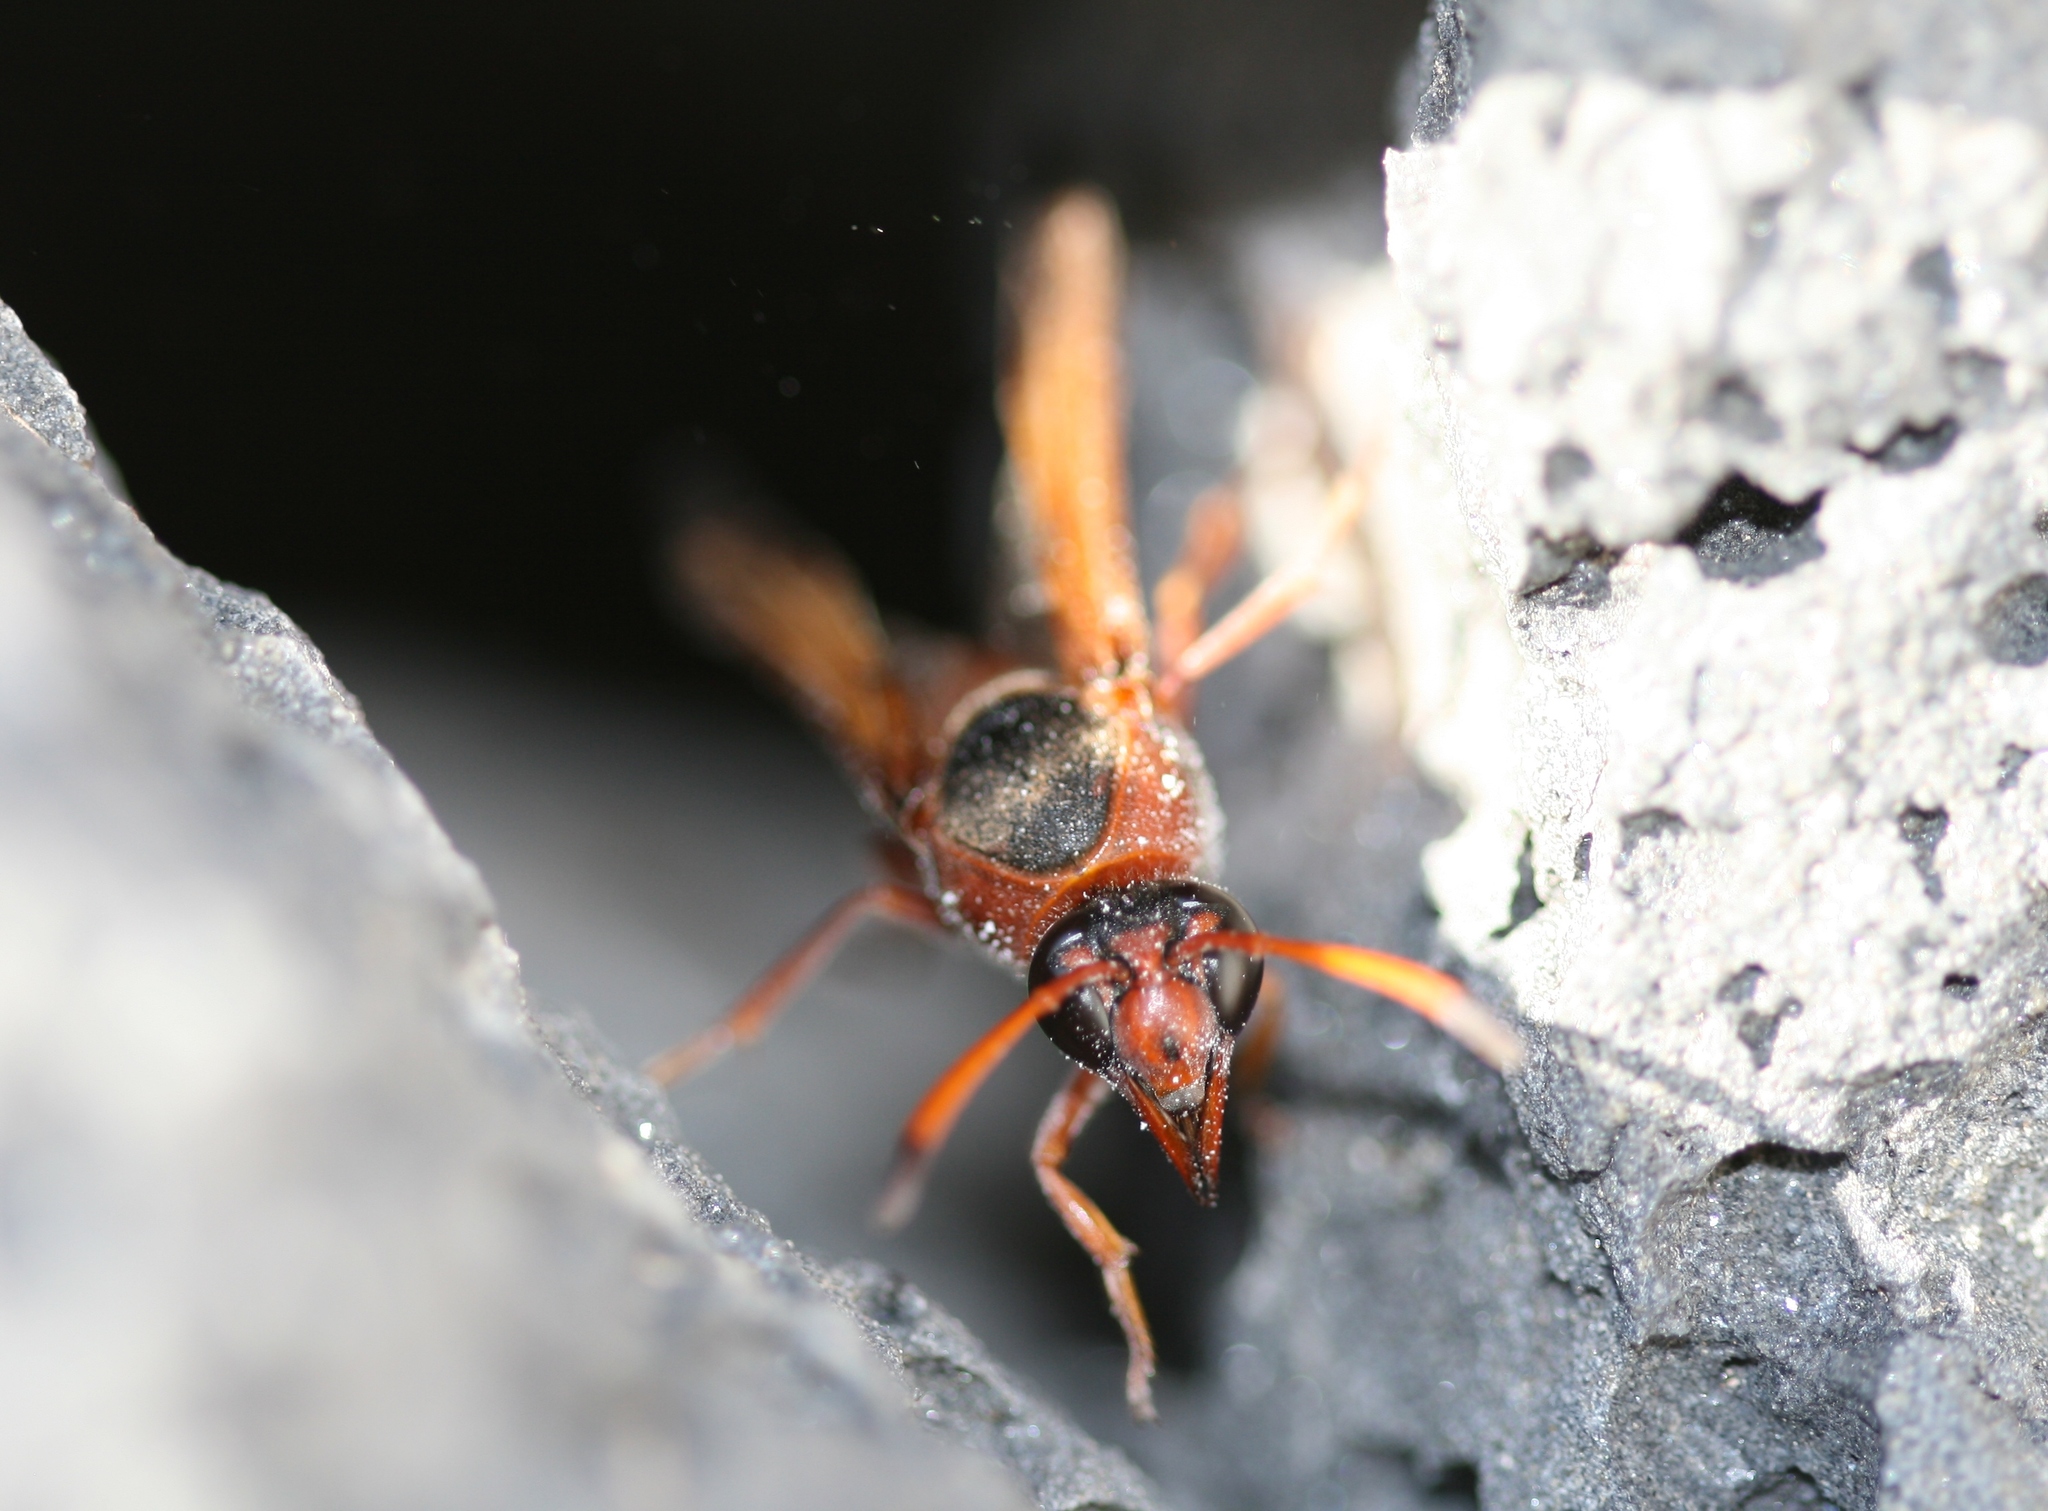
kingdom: Animalia
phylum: Arthropoda
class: Insecta
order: Hymenoptera
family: Eumenidae
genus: Delta
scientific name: Delta dimidiatipenne
